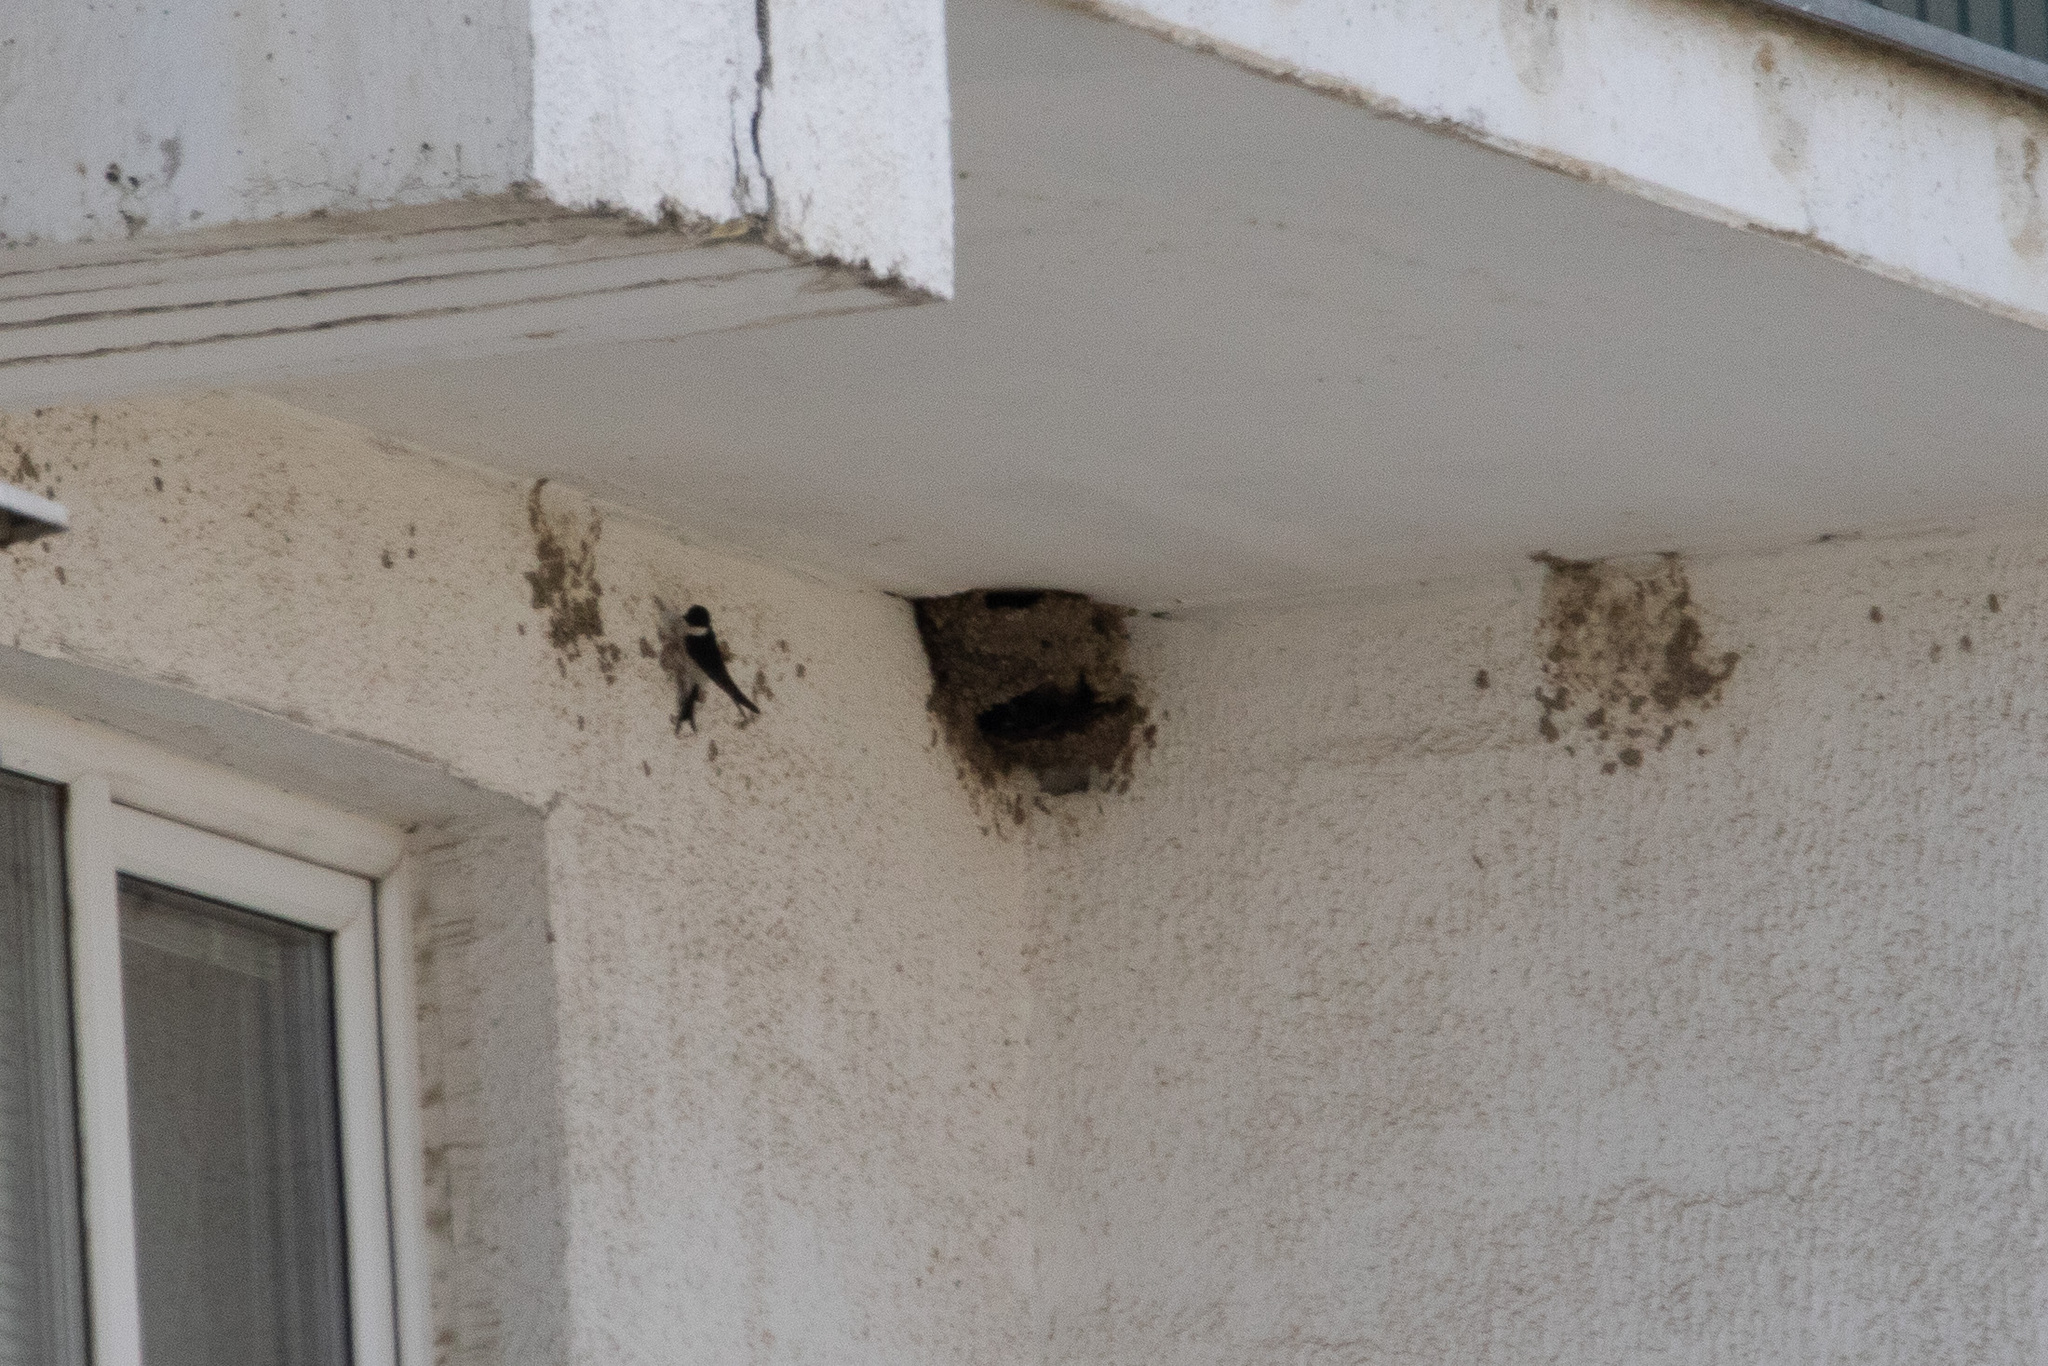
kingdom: Animalia
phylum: Chordata
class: Aves
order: Passeriformes
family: Hirundinidae
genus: Delichon
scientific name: Delichon urbicum
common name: Common house martin
